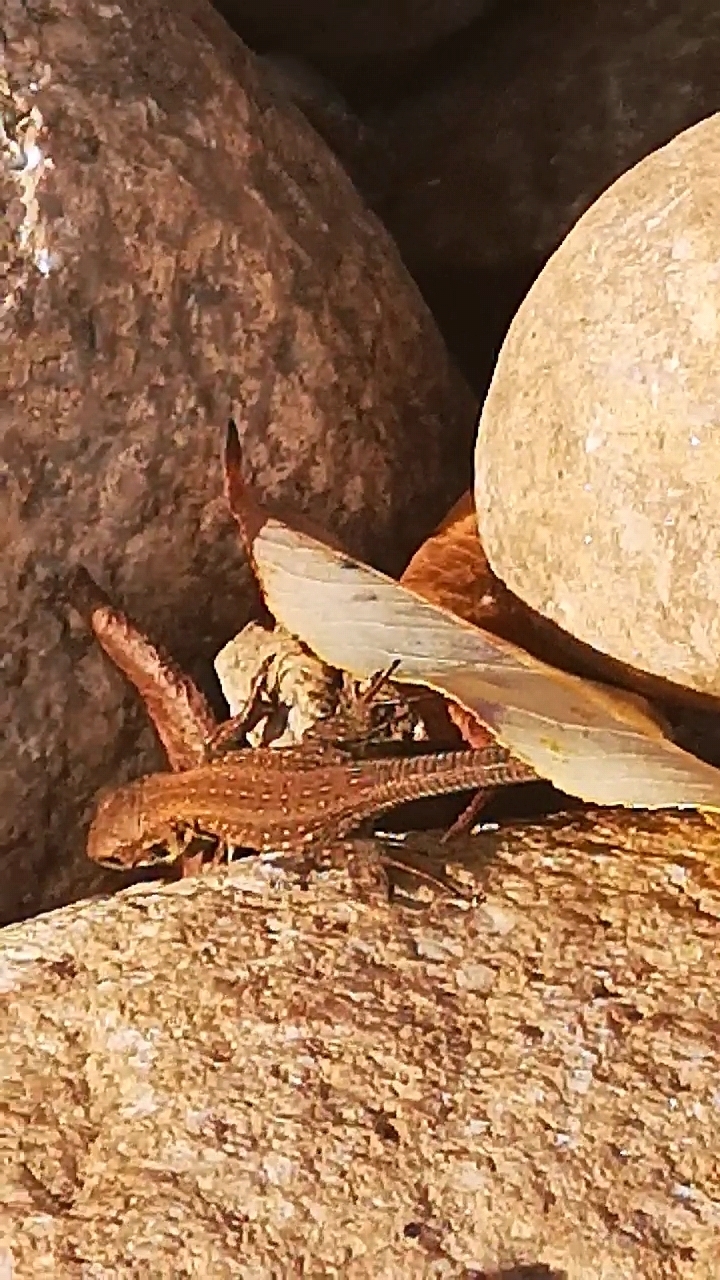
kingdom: Animalia
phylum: Chordata
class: Squamata
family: Lacertidae
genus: Lacerta
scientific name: Lacerta agilis
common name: Sand lizard
